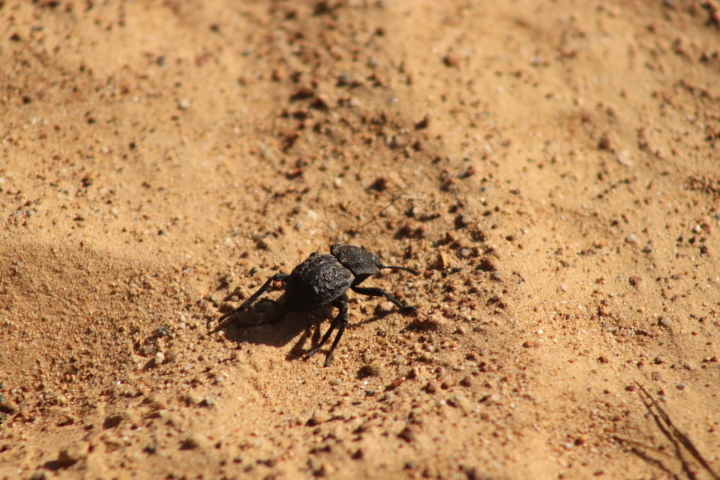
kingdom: Animalia
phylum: Arthropoda
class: Insecta
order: Coleoptera
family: Tenebrionidae
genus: Microschatia
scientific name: Microschatia inaequalis
